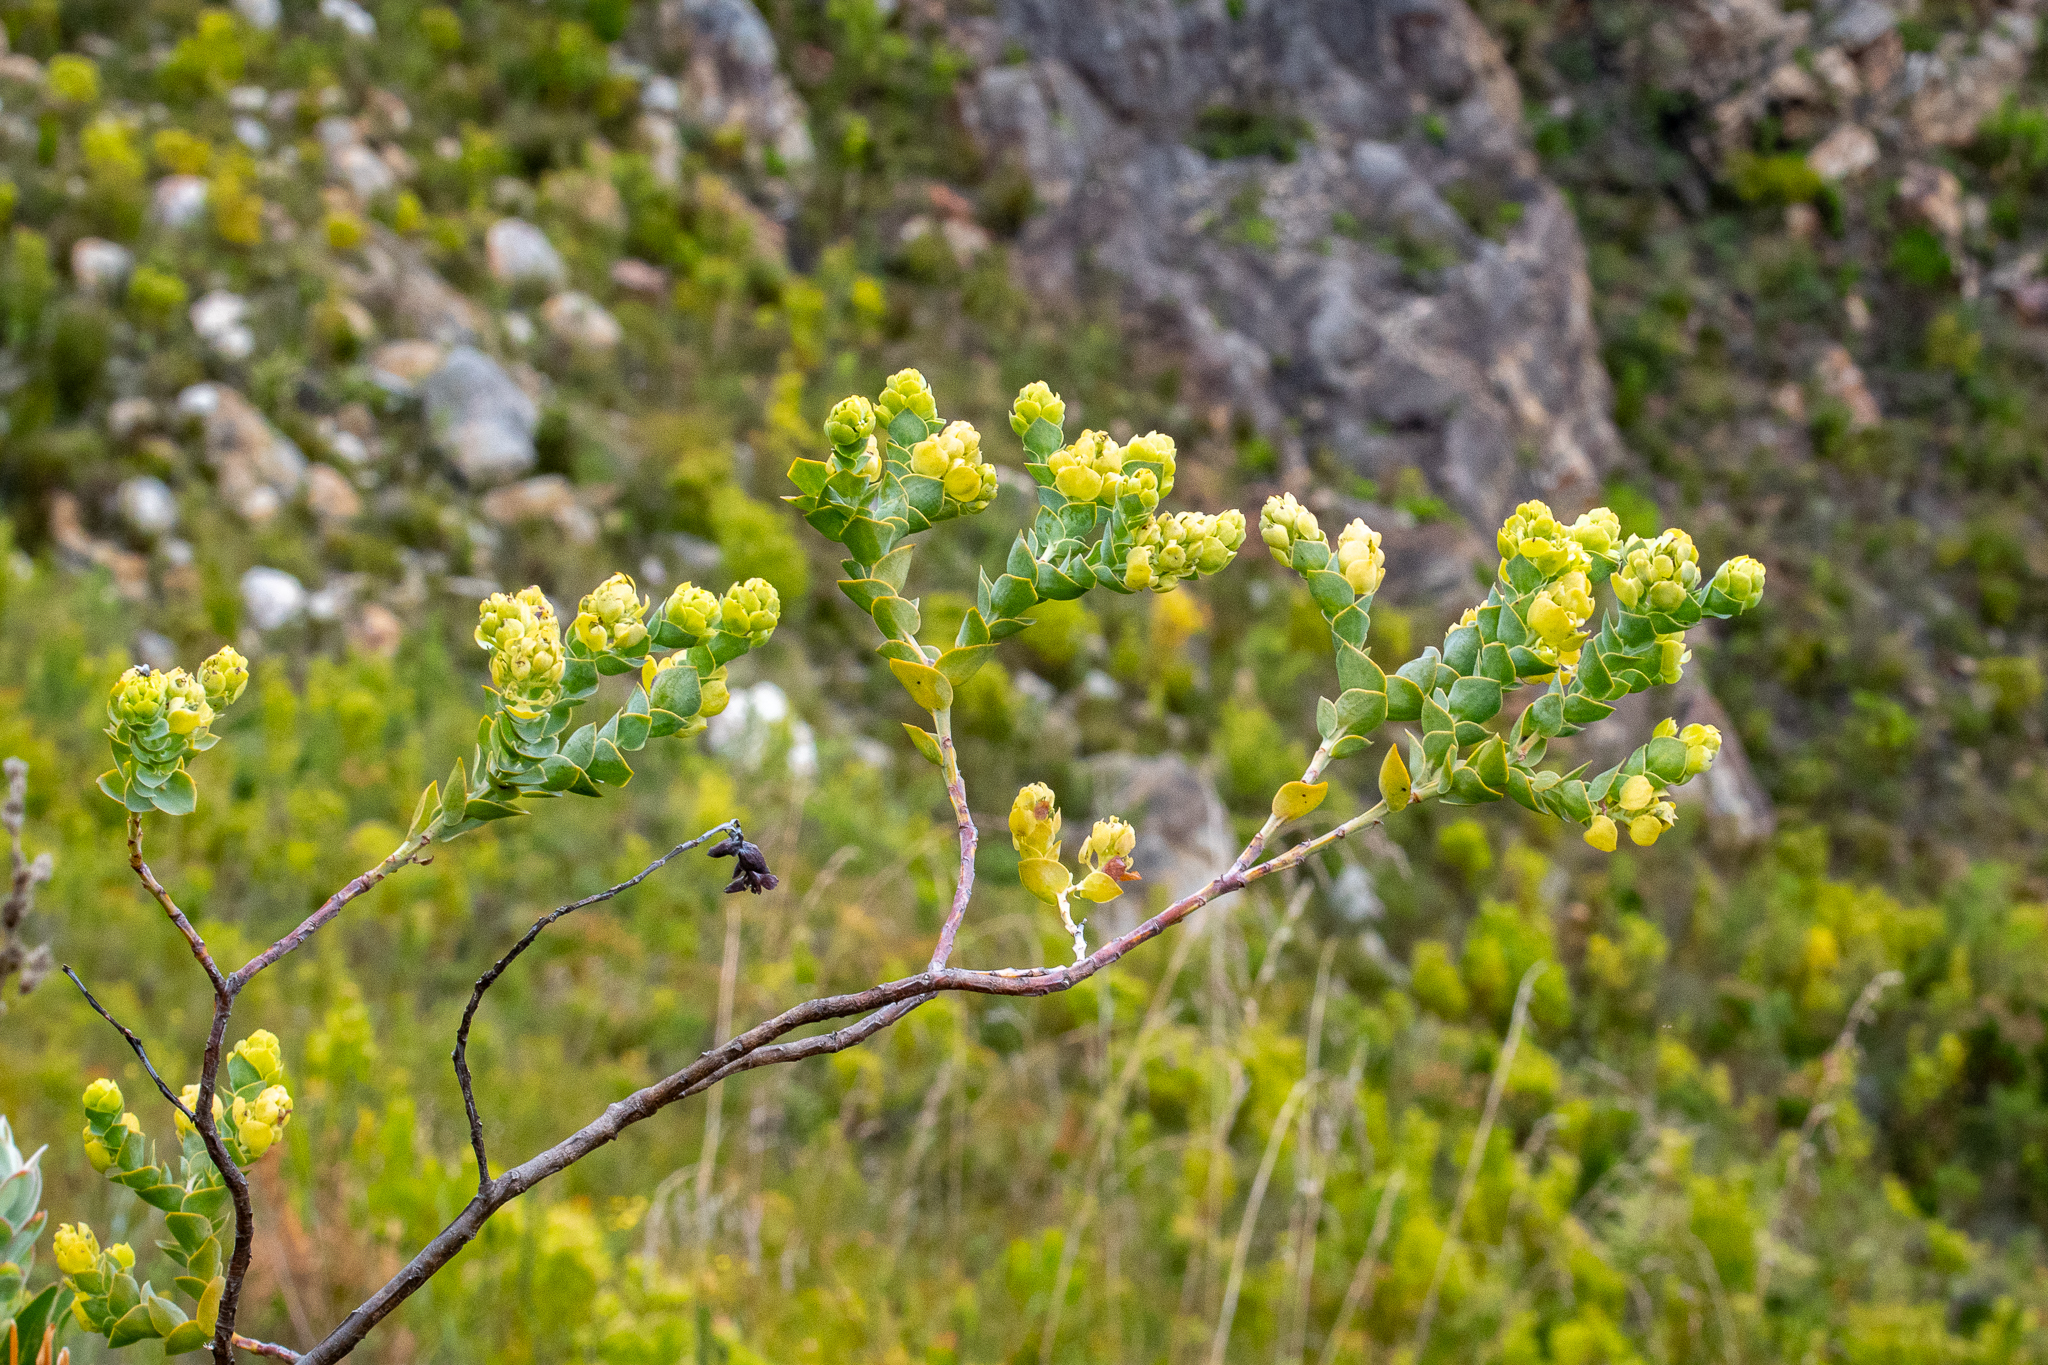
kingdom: Plantae
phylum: Tracheophyta
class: Magnoliopsida
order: Santalales
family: Thesiaceae
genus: Thesium
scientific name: Thesium euphorbioides
